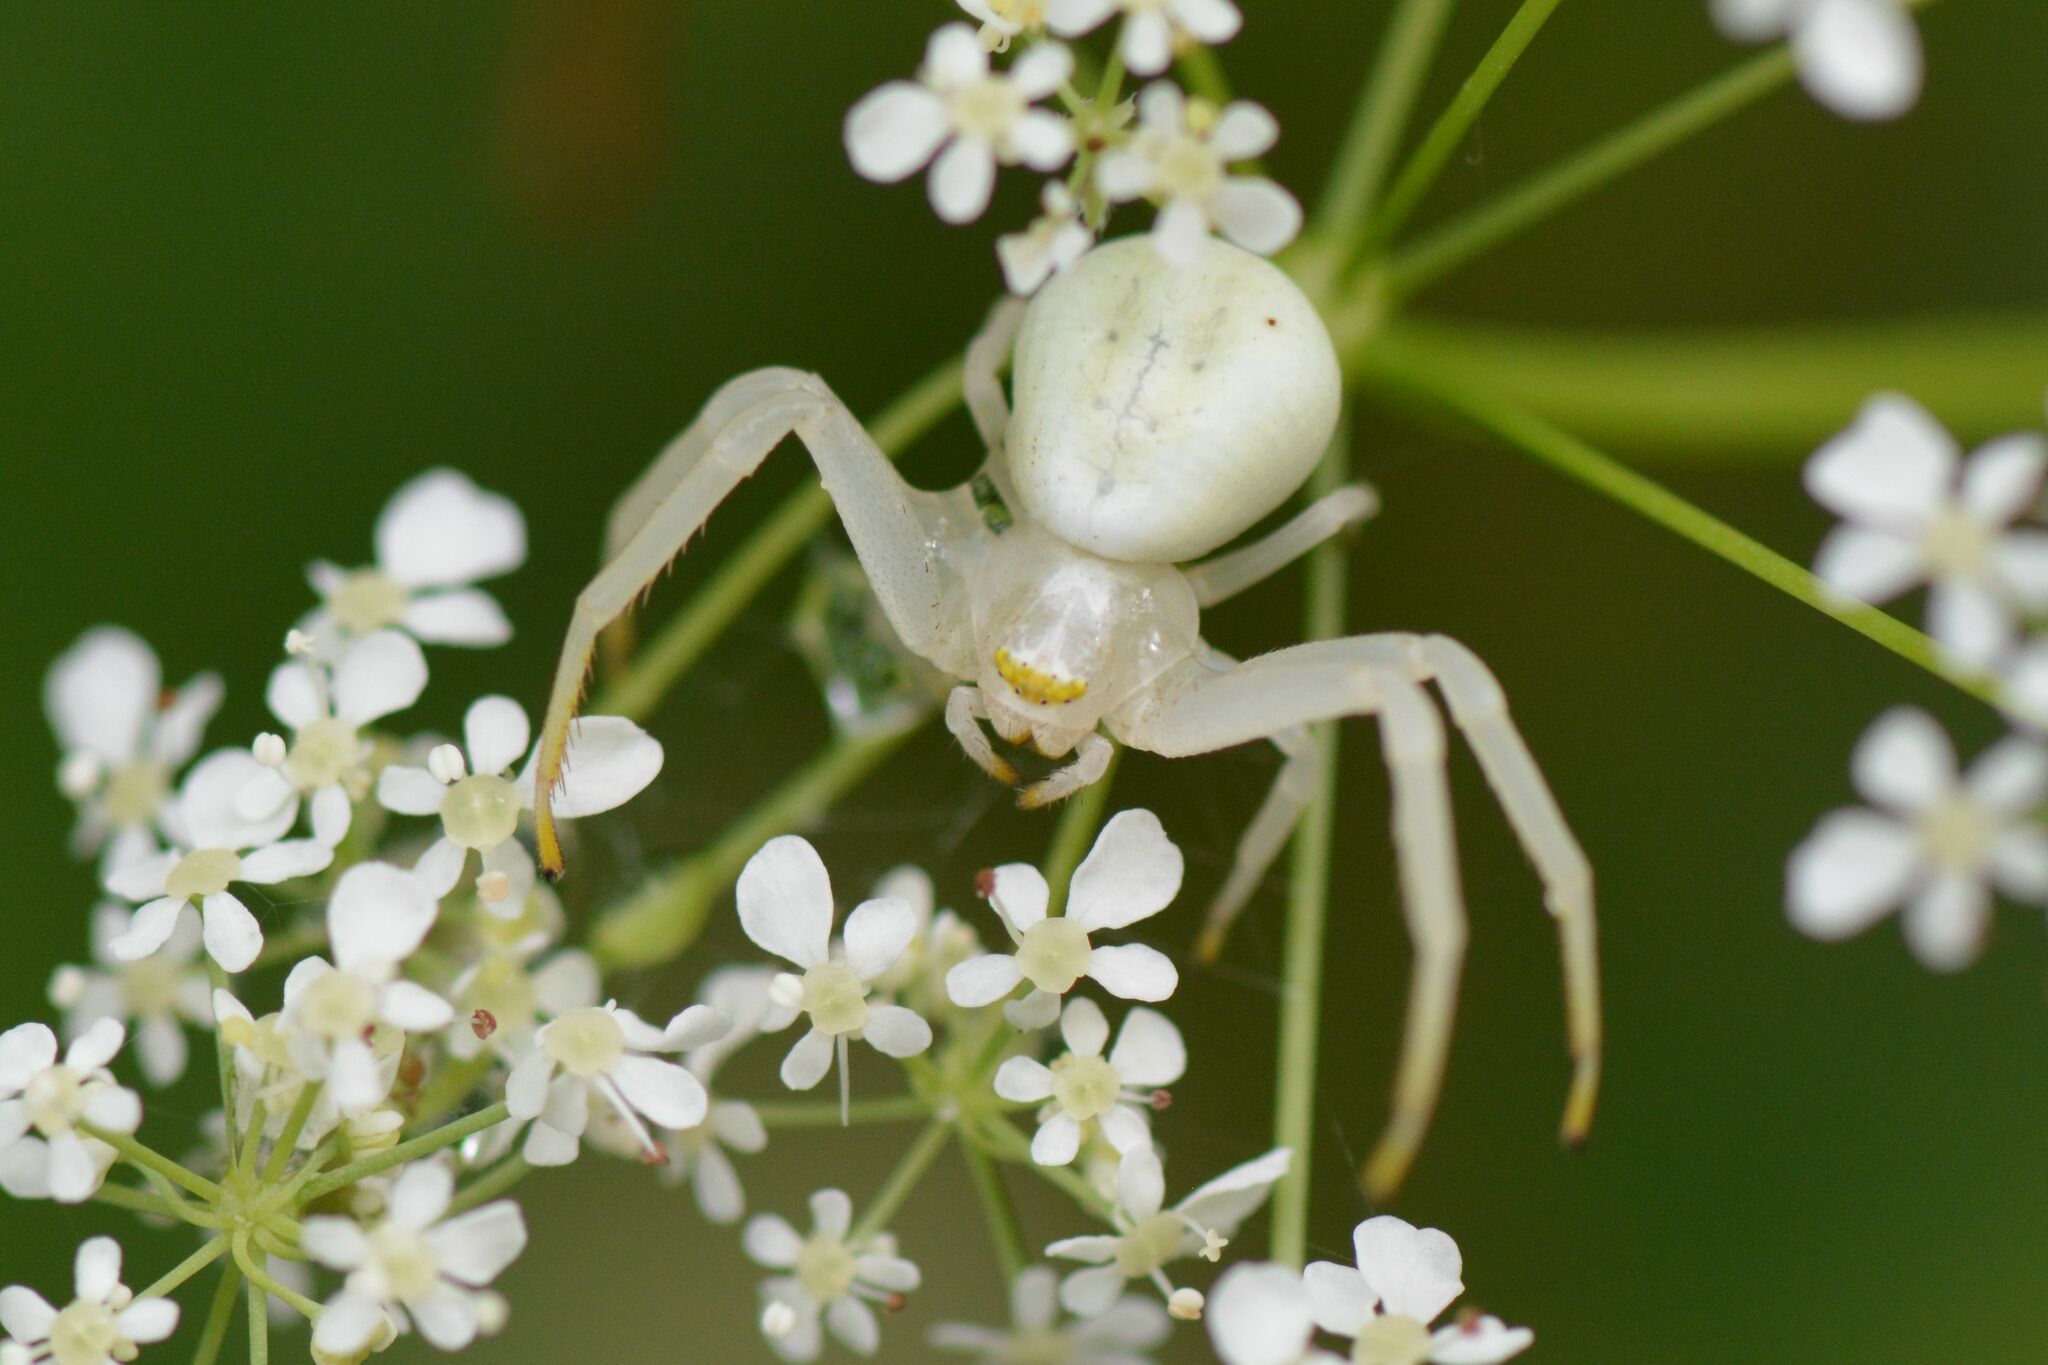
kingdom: Animalia
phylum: Arthropoda
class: Arachnida
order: Araneae
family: Thomisidae
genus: Misumena
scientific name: Misumena vatia
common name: Goldenrod crab spider
